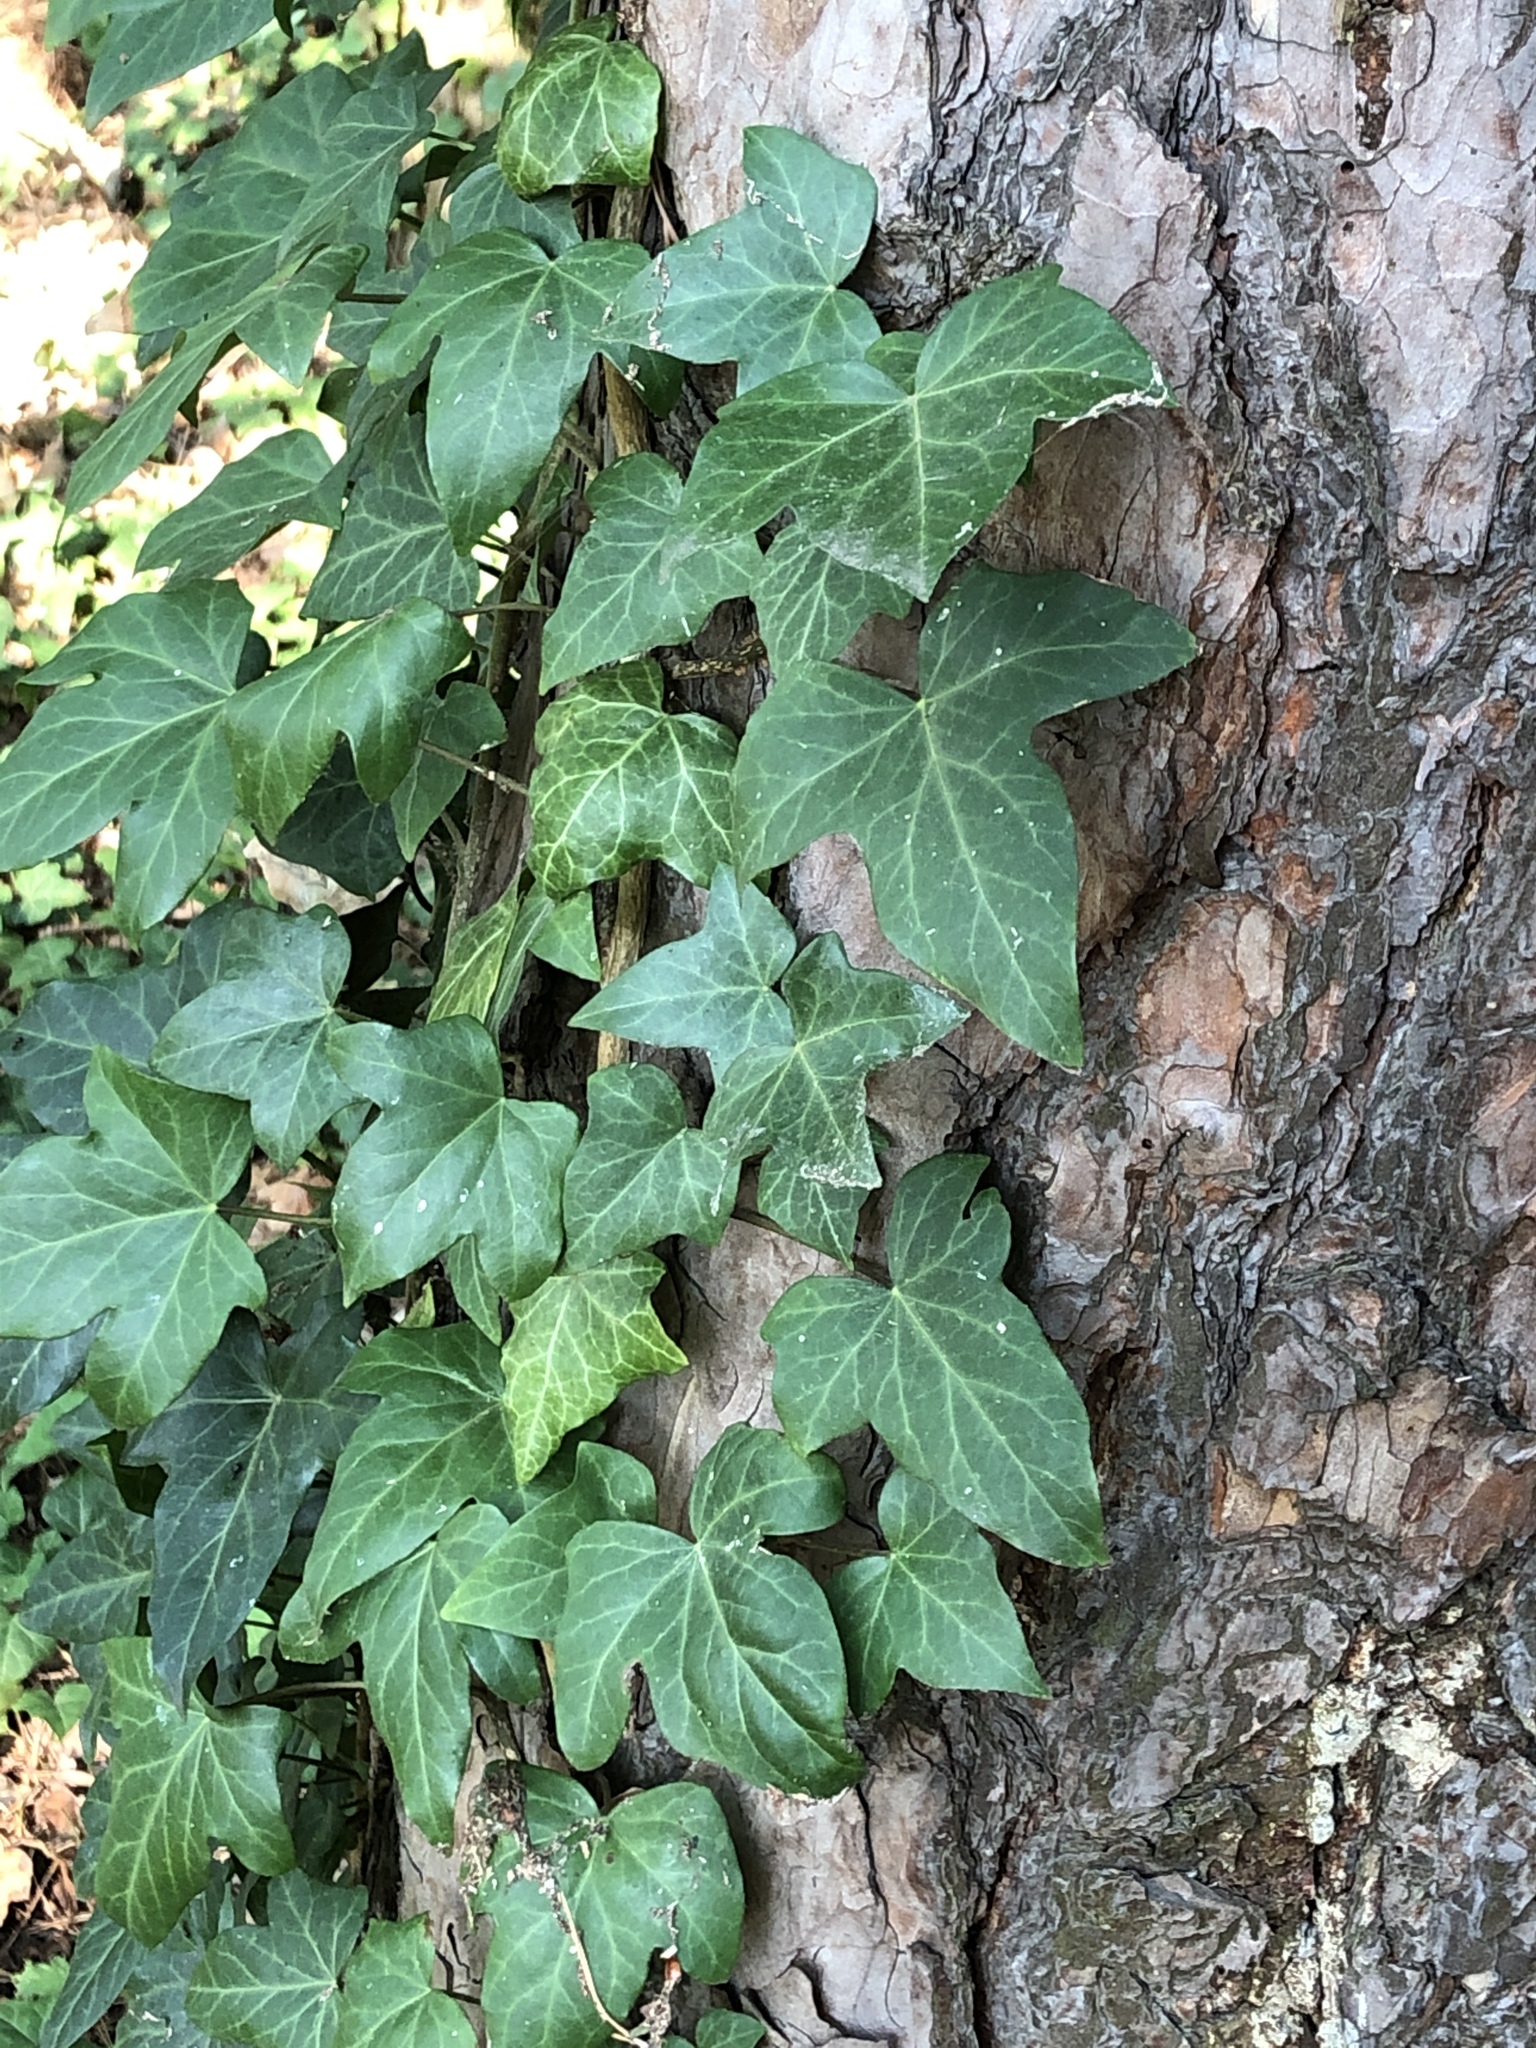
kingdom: Plantae
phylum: Tracheophyta
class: Magnoliopsida
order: Apiales
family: Araliaceae
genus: Hedera
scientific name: Hedera helix
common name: Ivy
